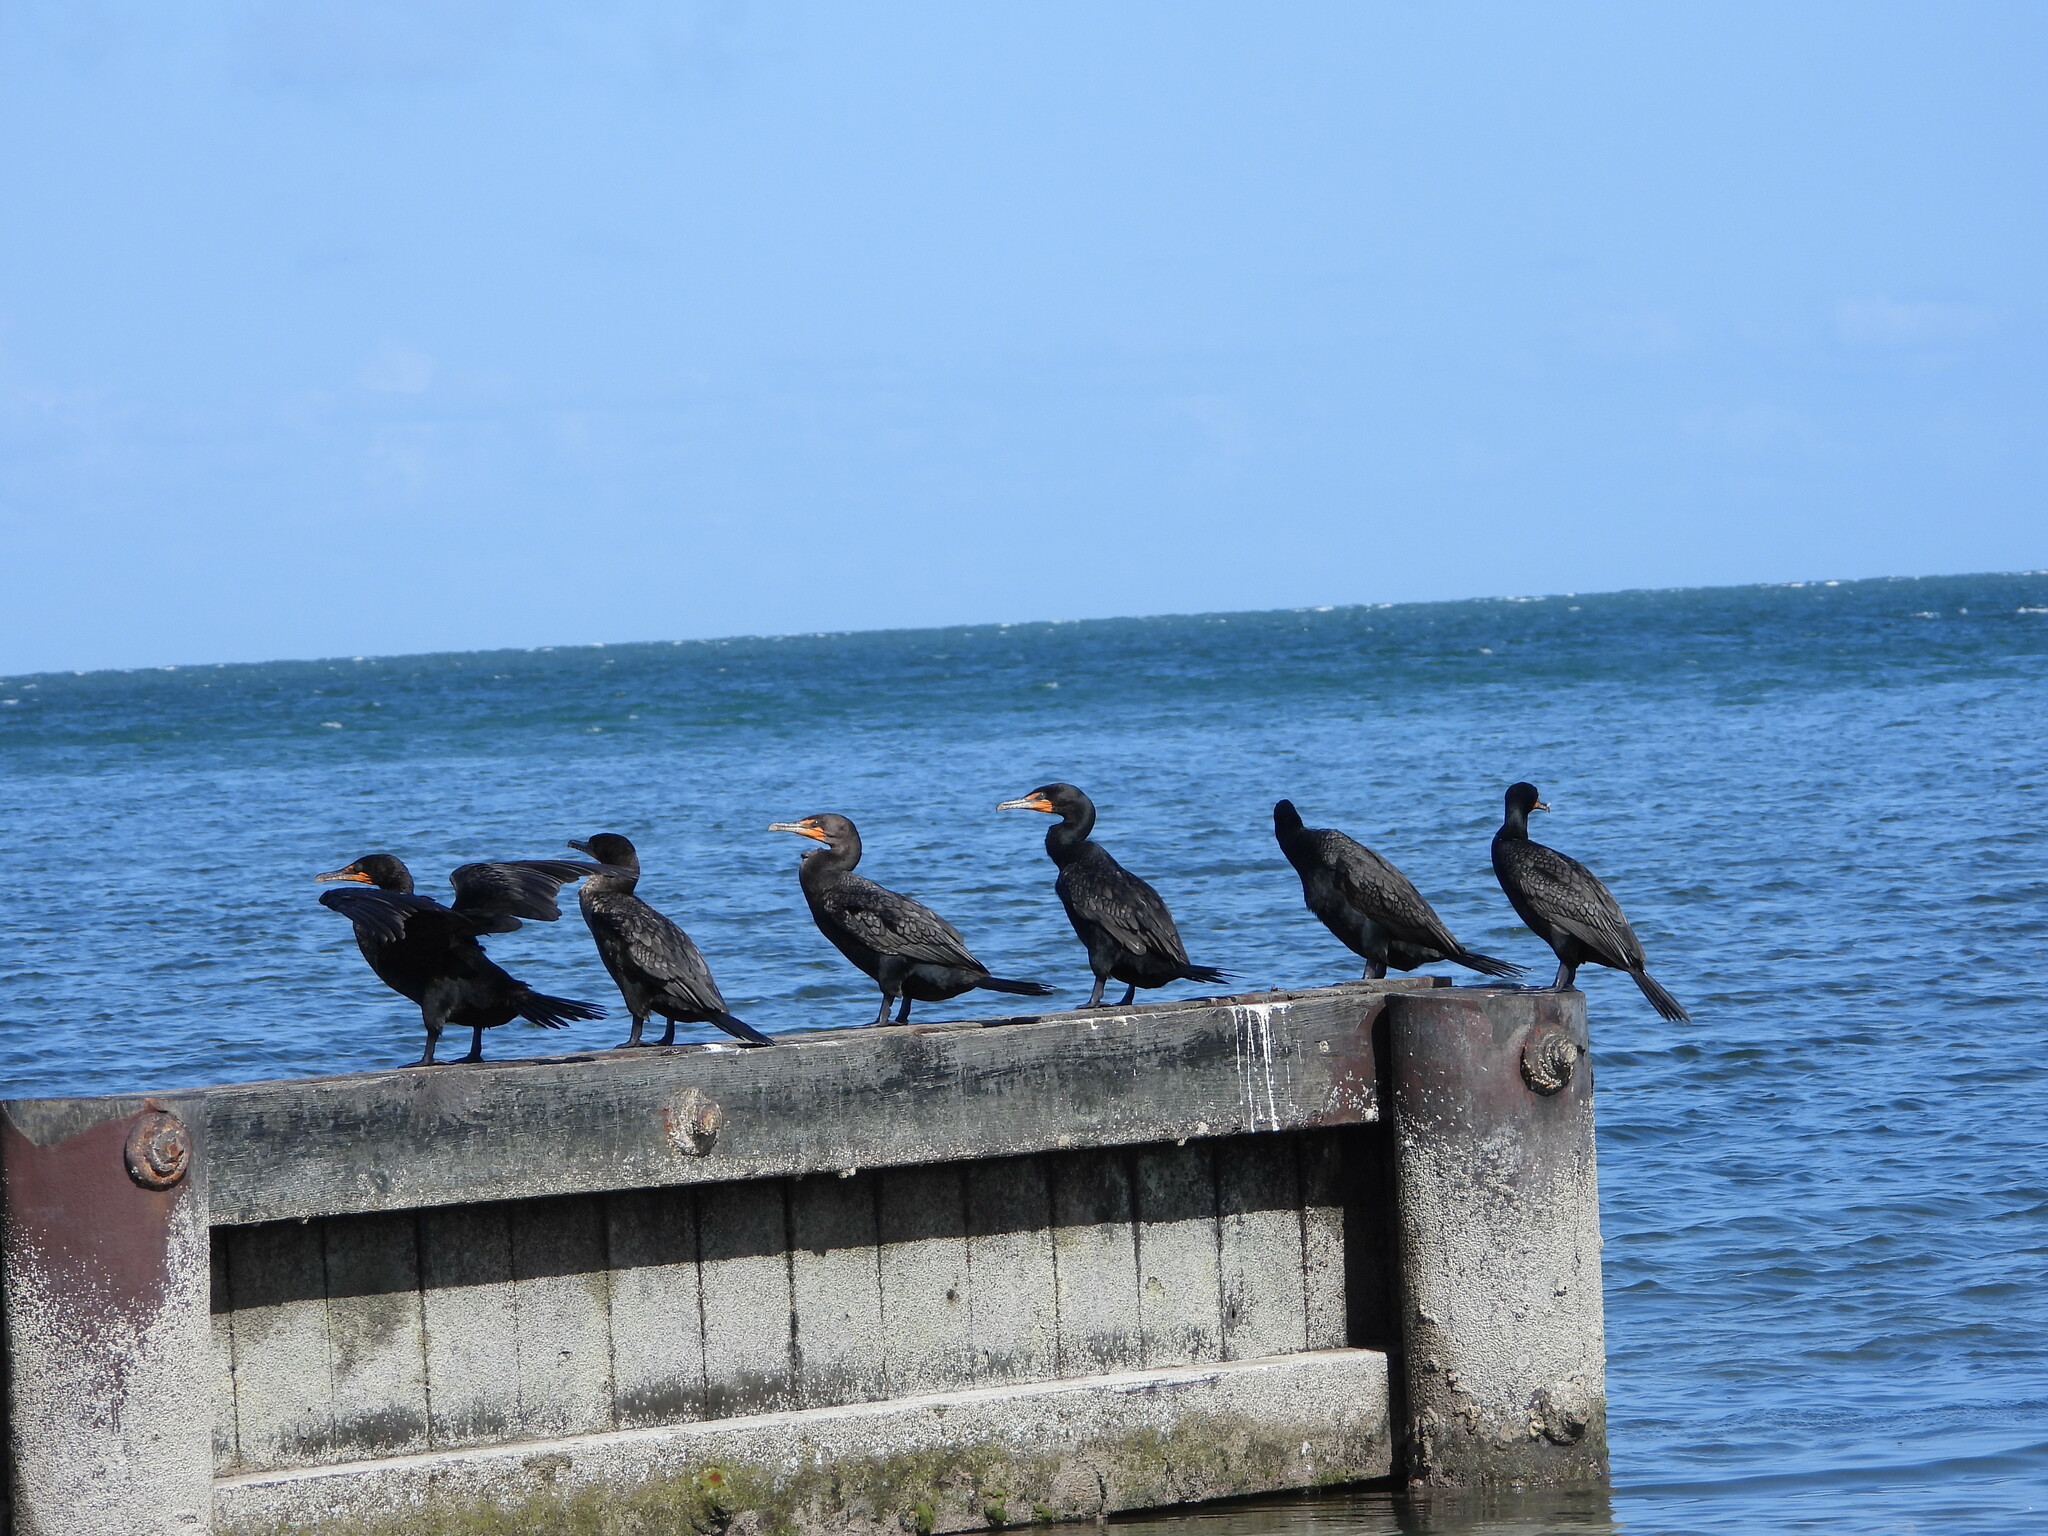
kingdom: Animalia
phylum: Chordata
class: Aves
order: Suliformes
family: Phalacrocoracidae
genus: Phalacrocorax
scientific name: Phalacrocorax auritus
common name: Double-crested cormorant
